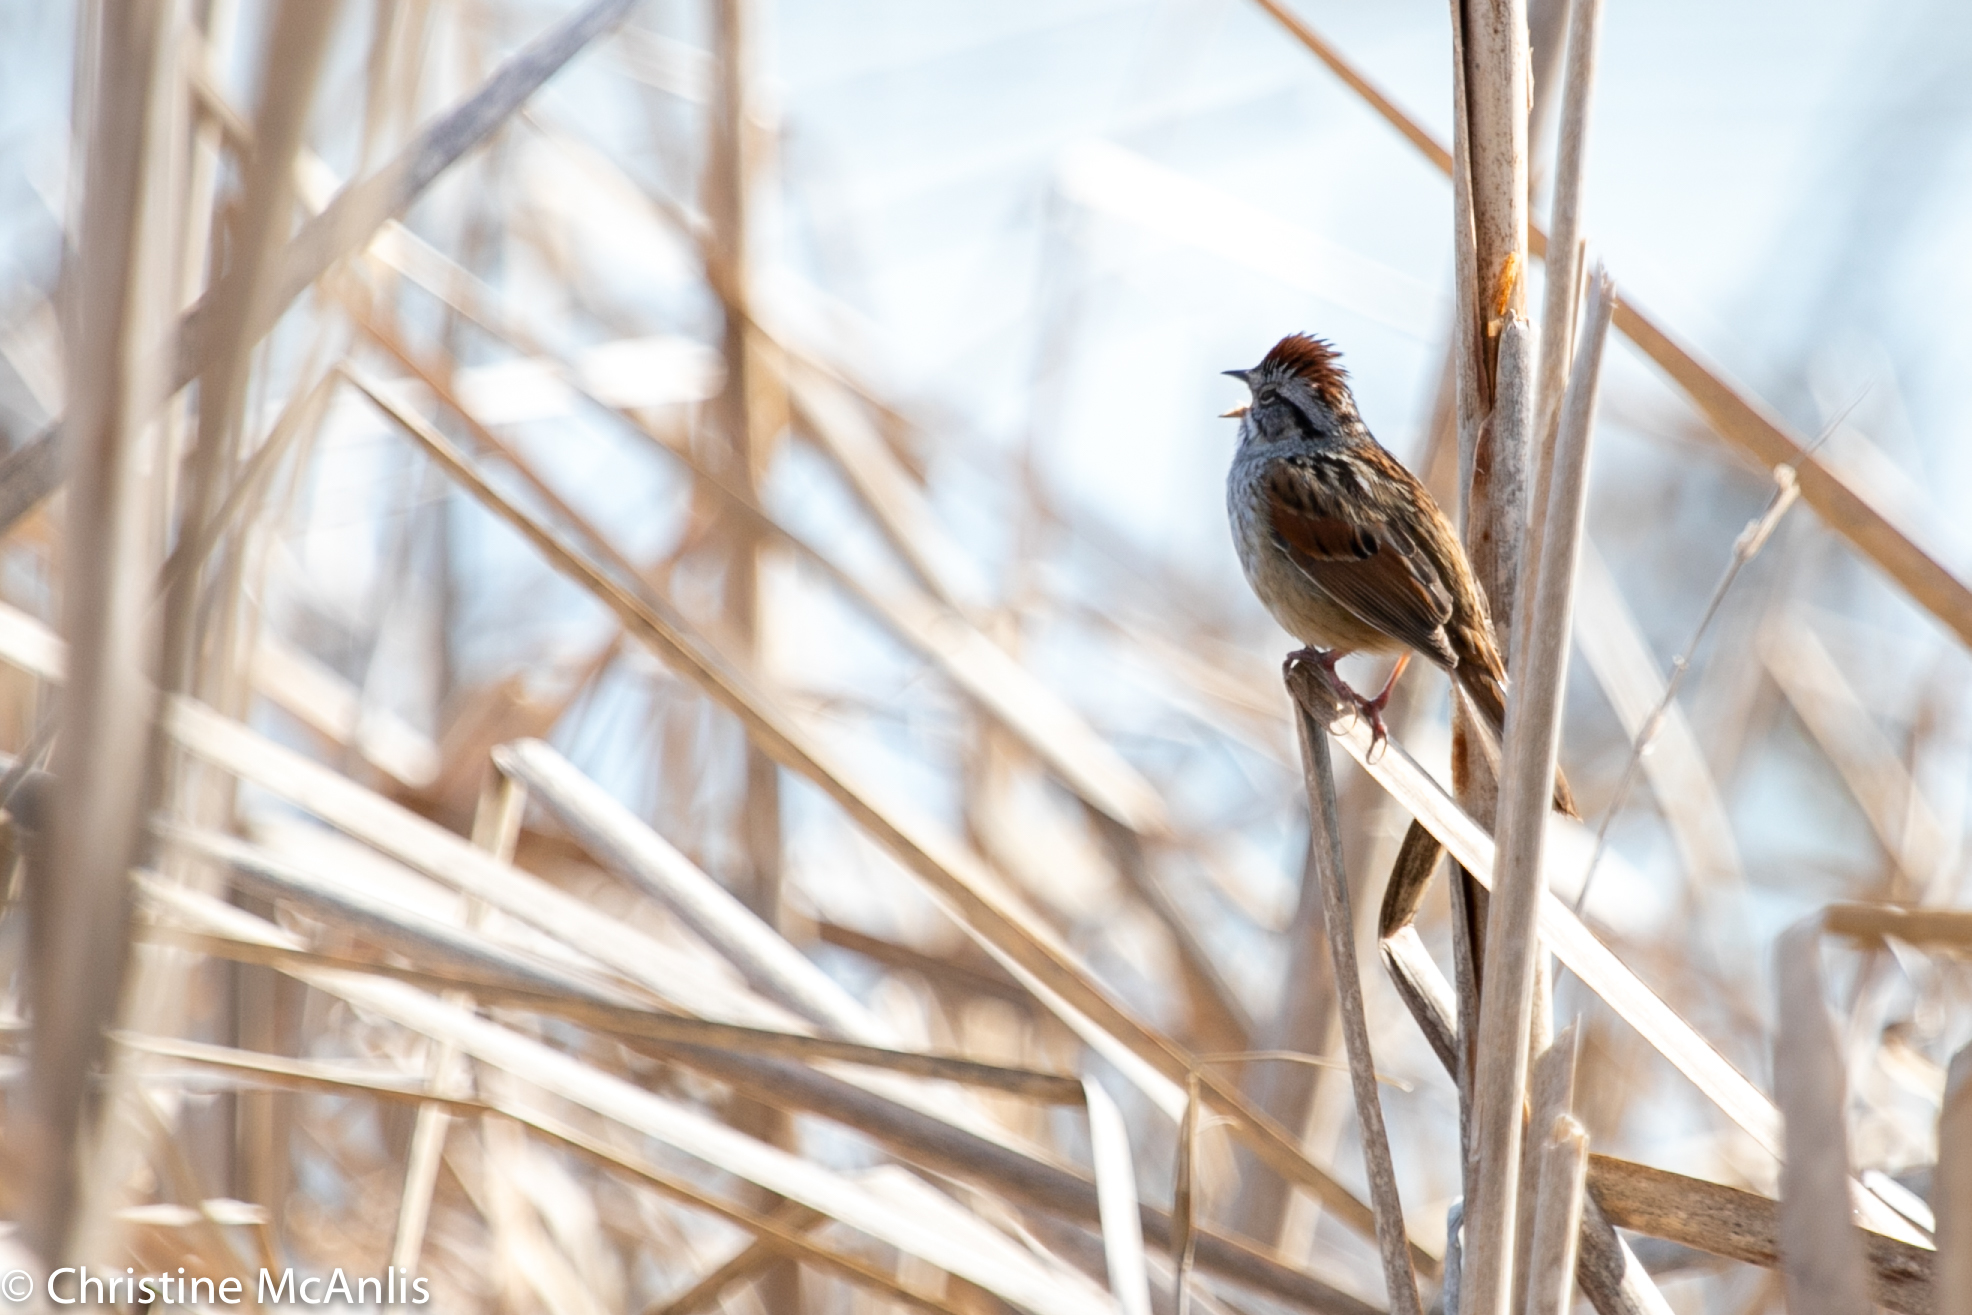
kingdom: Animalia
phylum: Chordata
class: Aves
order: Passeriformes
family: Passerellidae
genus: Melospiza
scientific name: Melospiza georgiana
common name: Swamp sparrow
